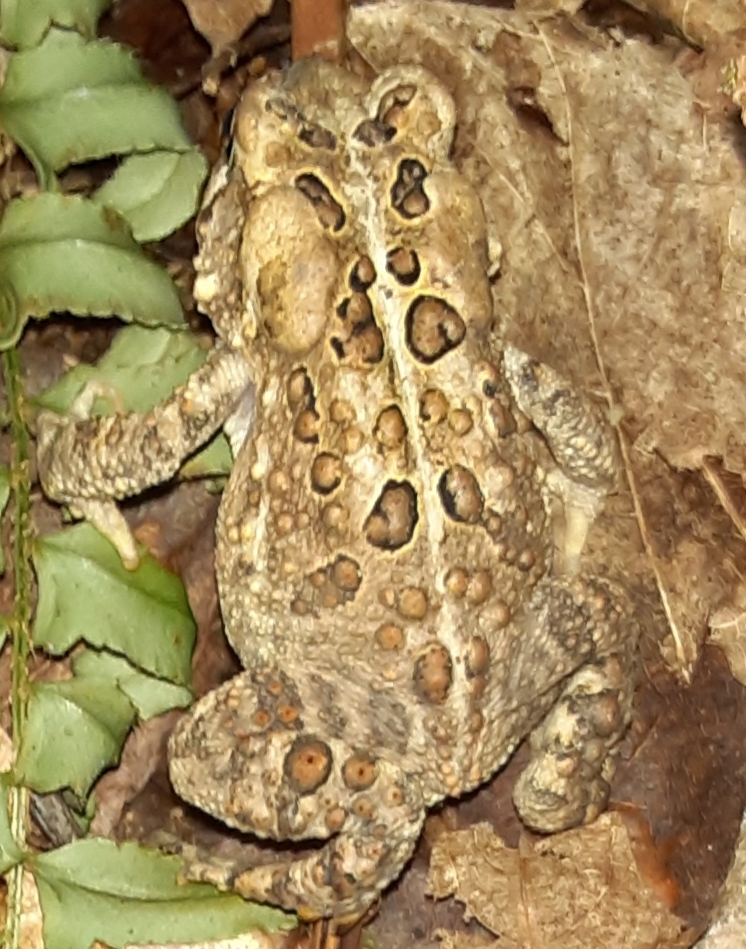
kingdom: Animalia
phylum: Chordata
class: Amphibia
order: Anura
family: Bufonidae
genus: Anaxyrus
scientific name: Anaxyrus americanus
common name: American toad
